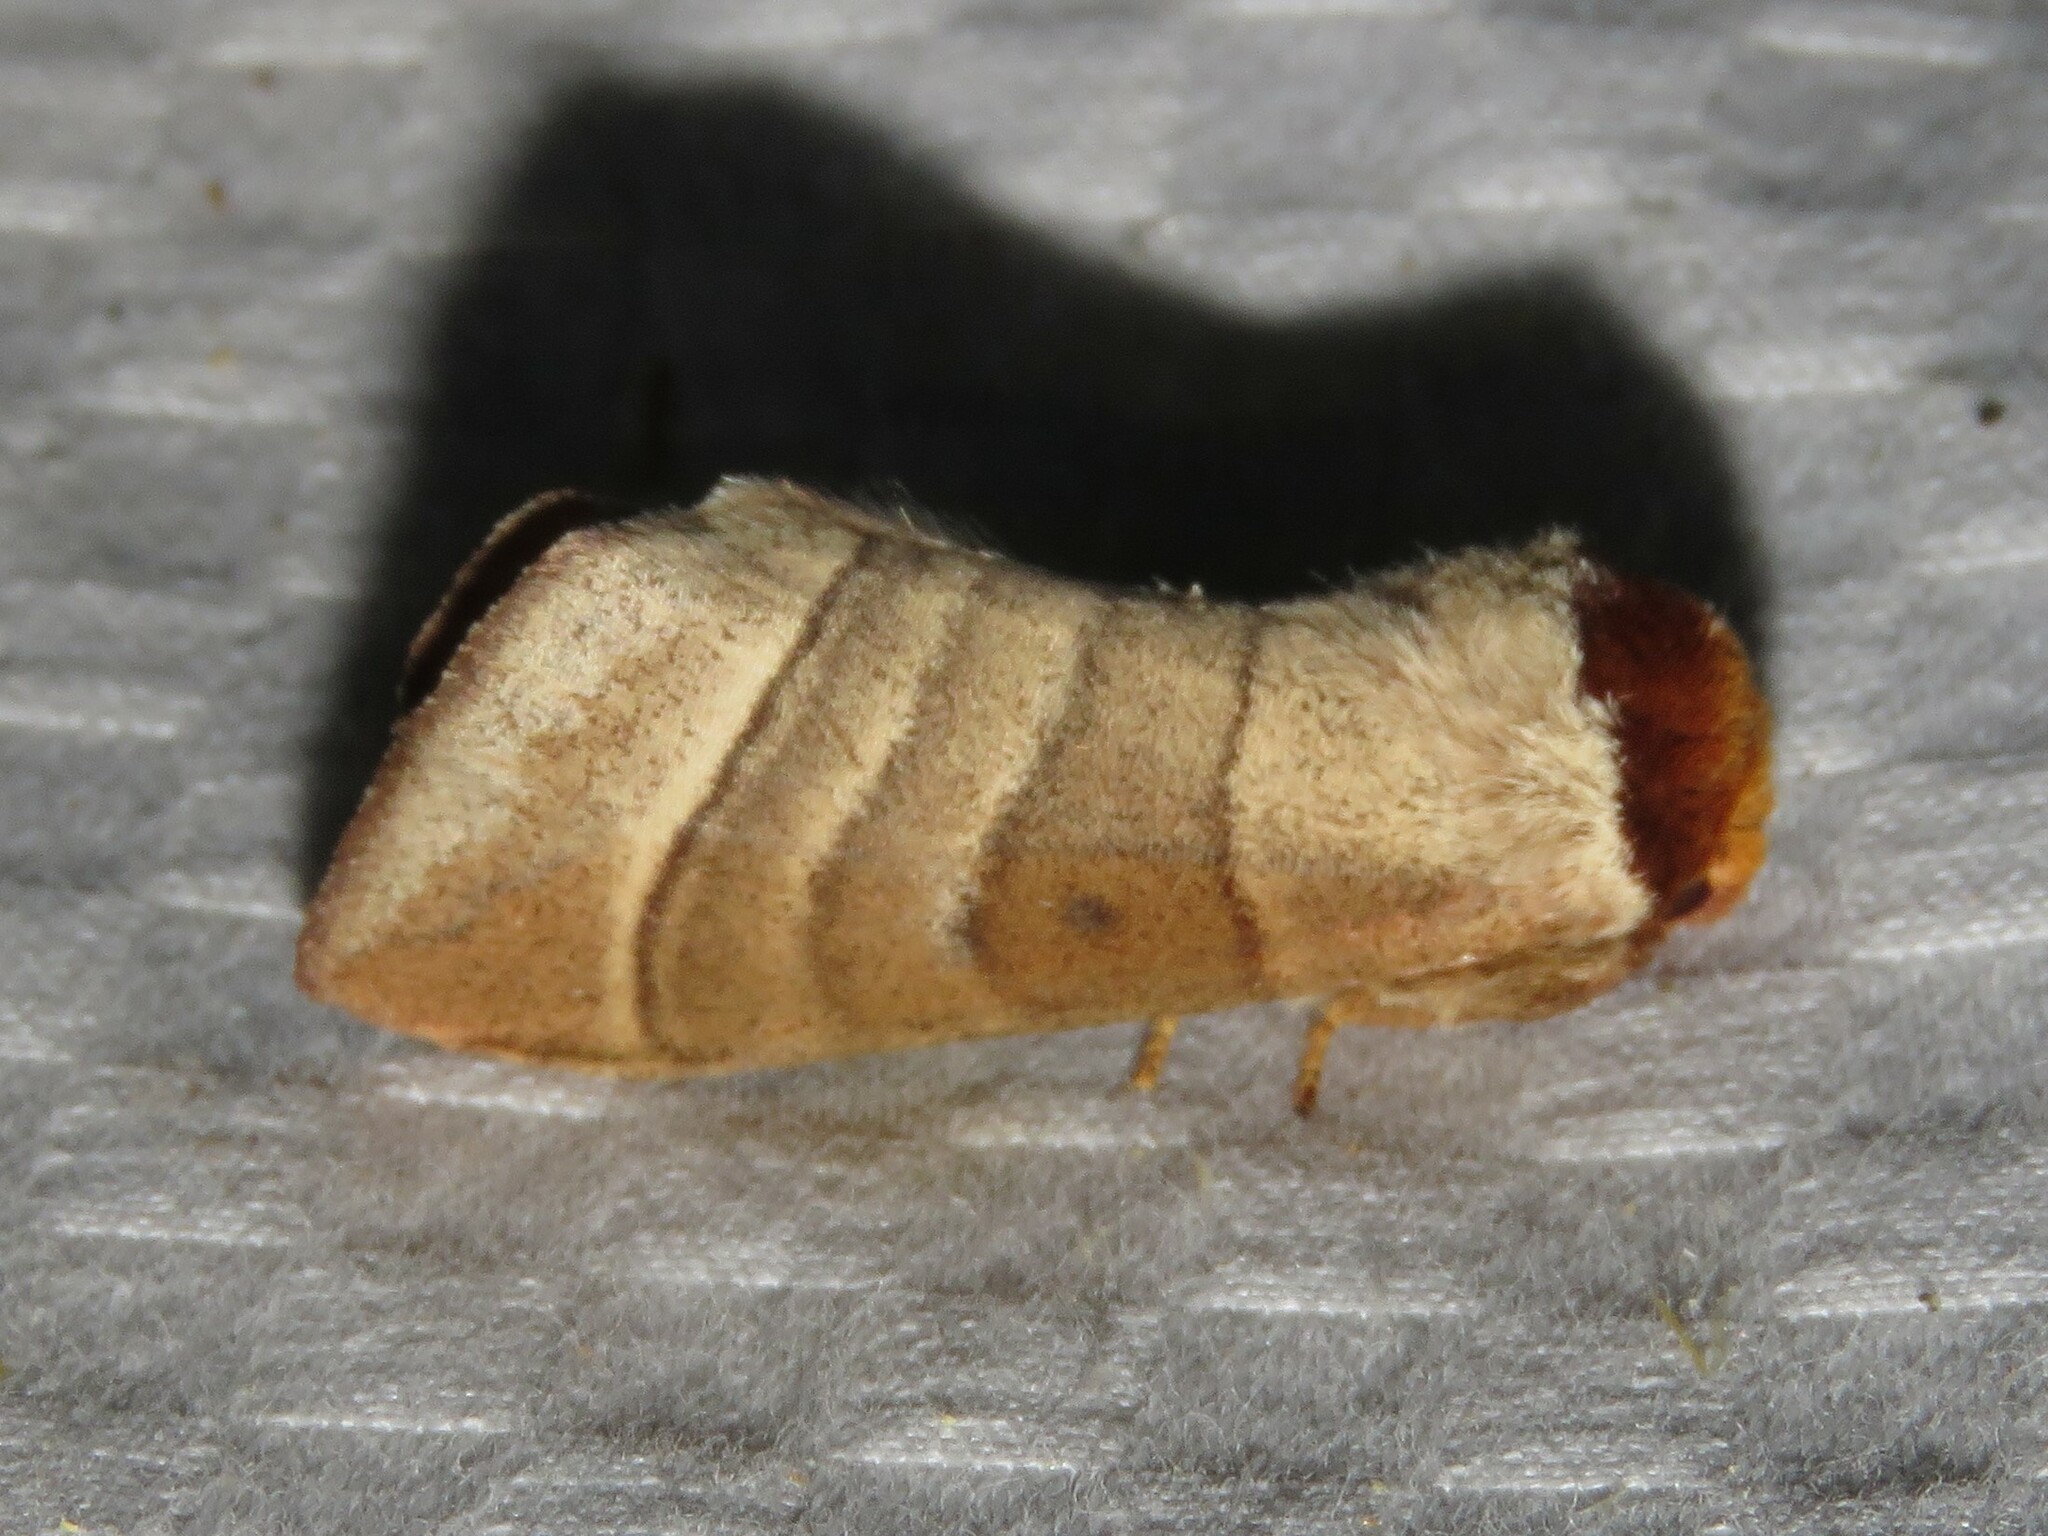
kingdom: Animalia
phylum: Arthropoda
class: Insecta
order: Lepidoptera
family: Notodontidae
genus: Datana
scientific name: Datana integerrima
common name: Walnut caterpillar
